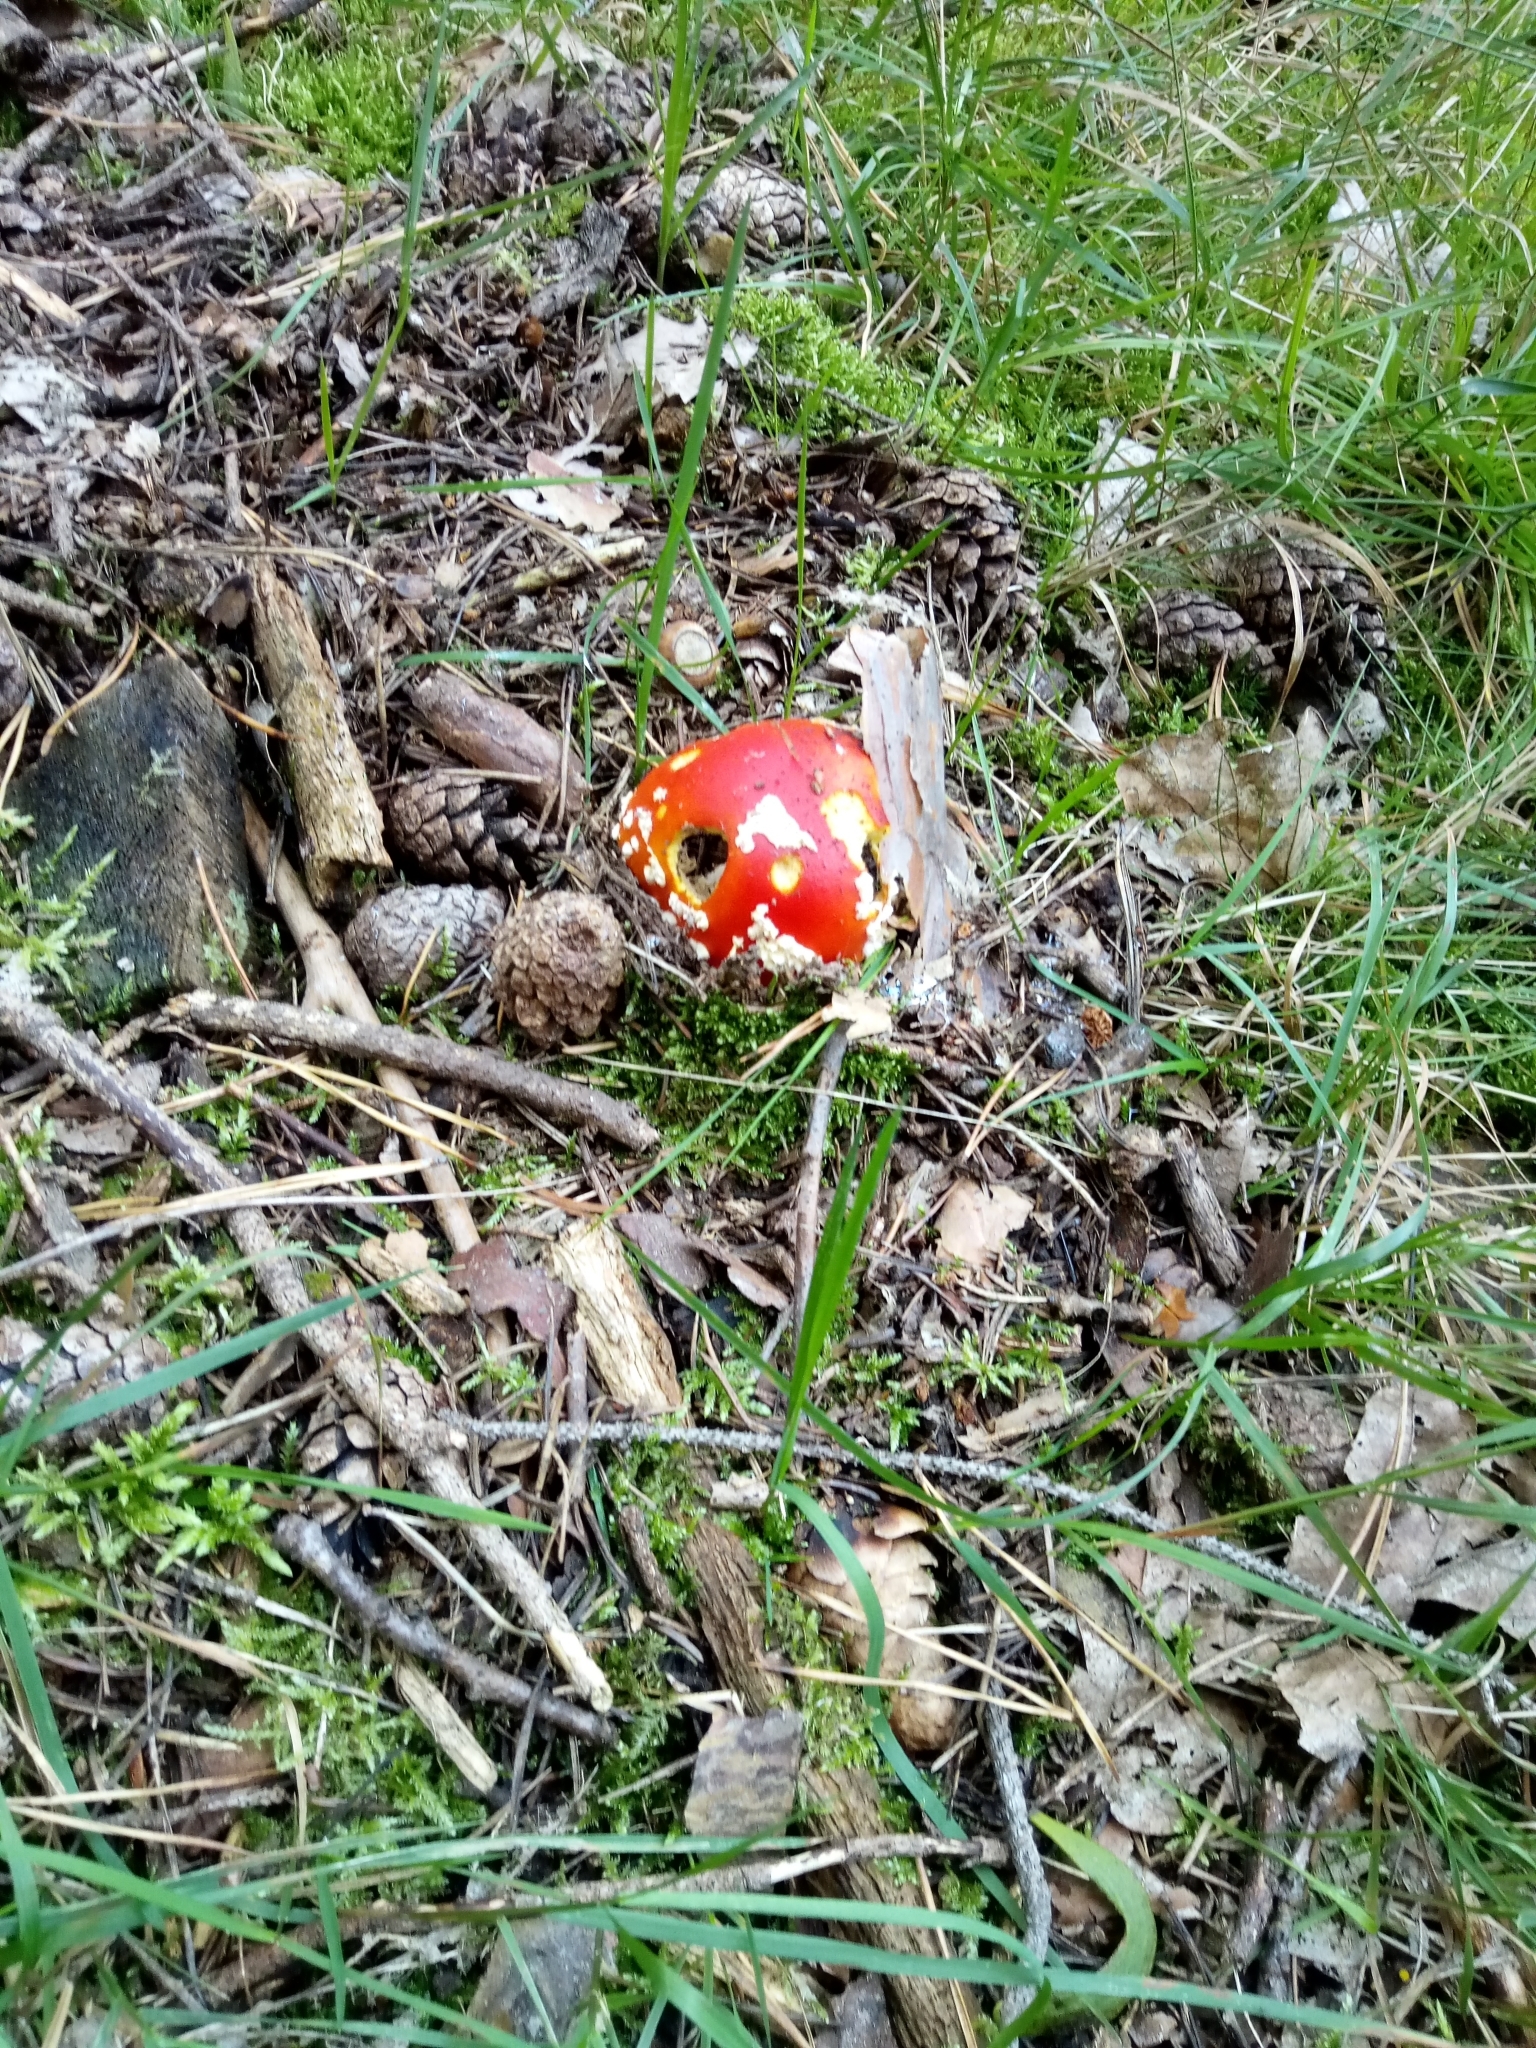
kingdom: Fungi
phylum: Basidiomycota
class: Agaricomycetes
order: Agaricales
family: Amanitaceae
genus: Amanita
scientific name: Amanita muscaria
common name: Fly agaric
